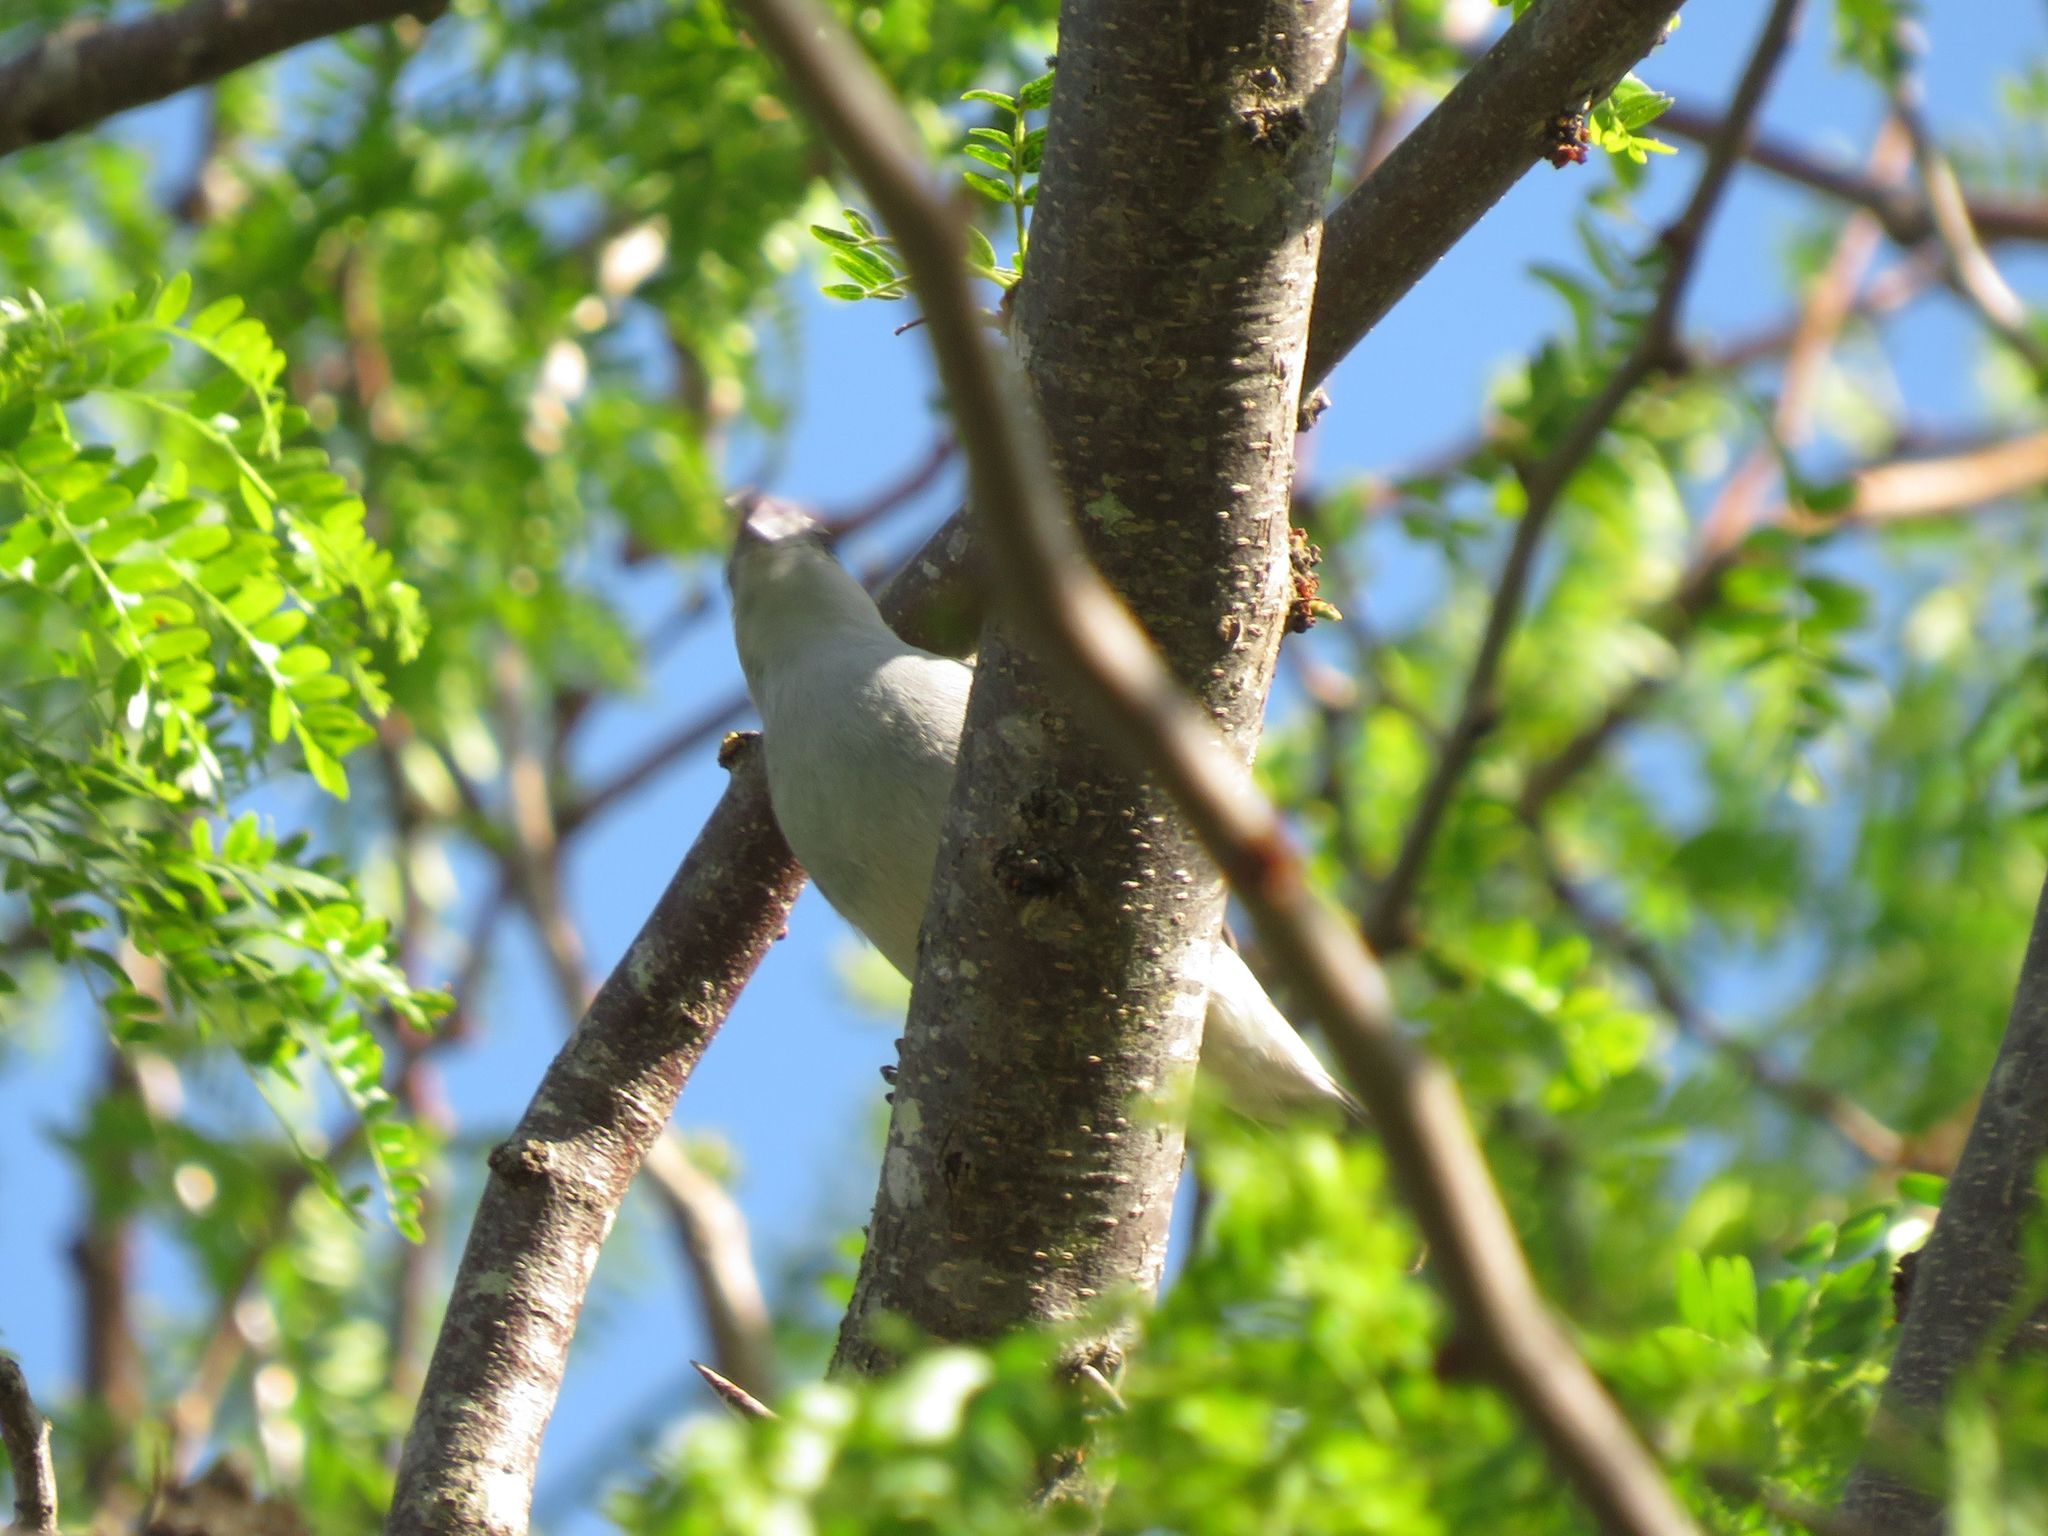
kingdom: Animalia
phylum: Chordata
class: Aves
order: Passeriformes
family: Thraupidae
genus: Thraupis
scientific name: Thraupis sayaca
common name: Sayaca tanager
